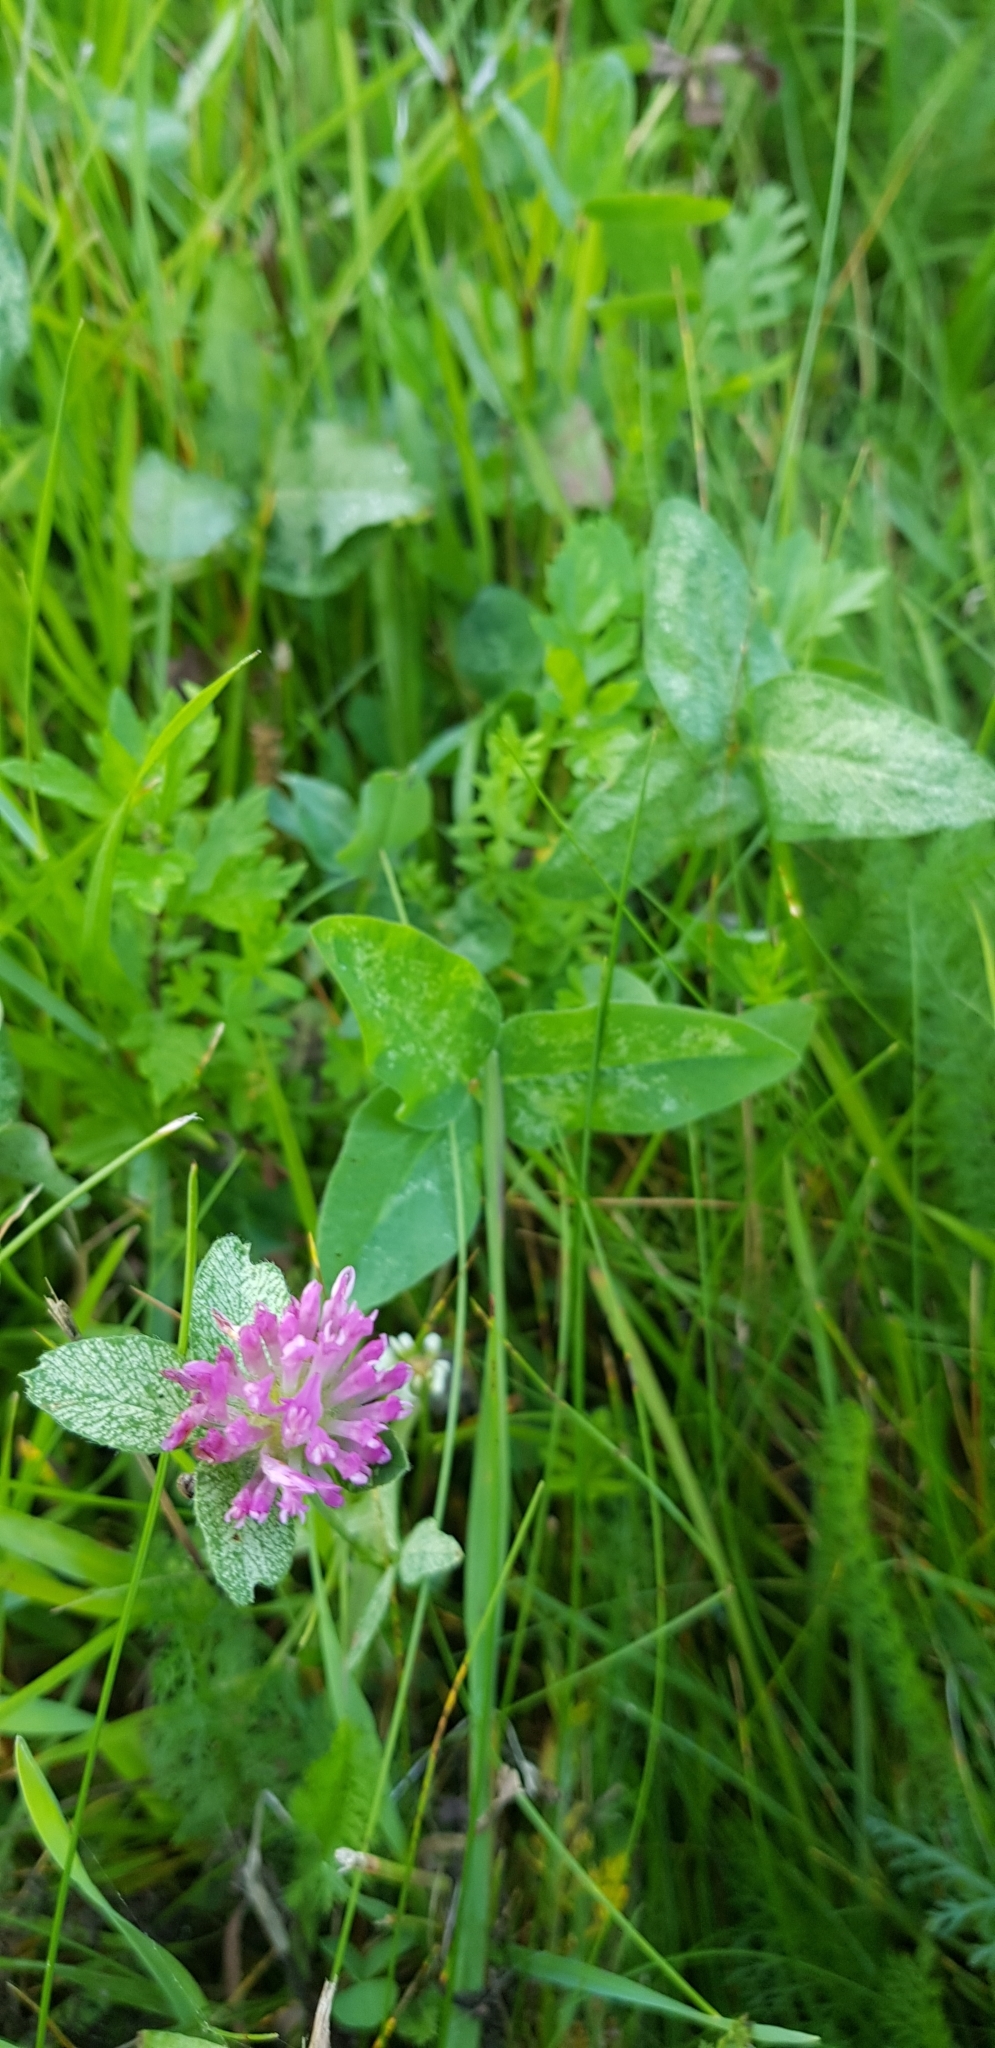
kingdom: Plantae
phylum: Tracheophyta
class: Magnoliopsida
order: Fabales
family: Fabaceae
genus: Trifolium
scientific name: Trifolium pratense
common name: Red clover
